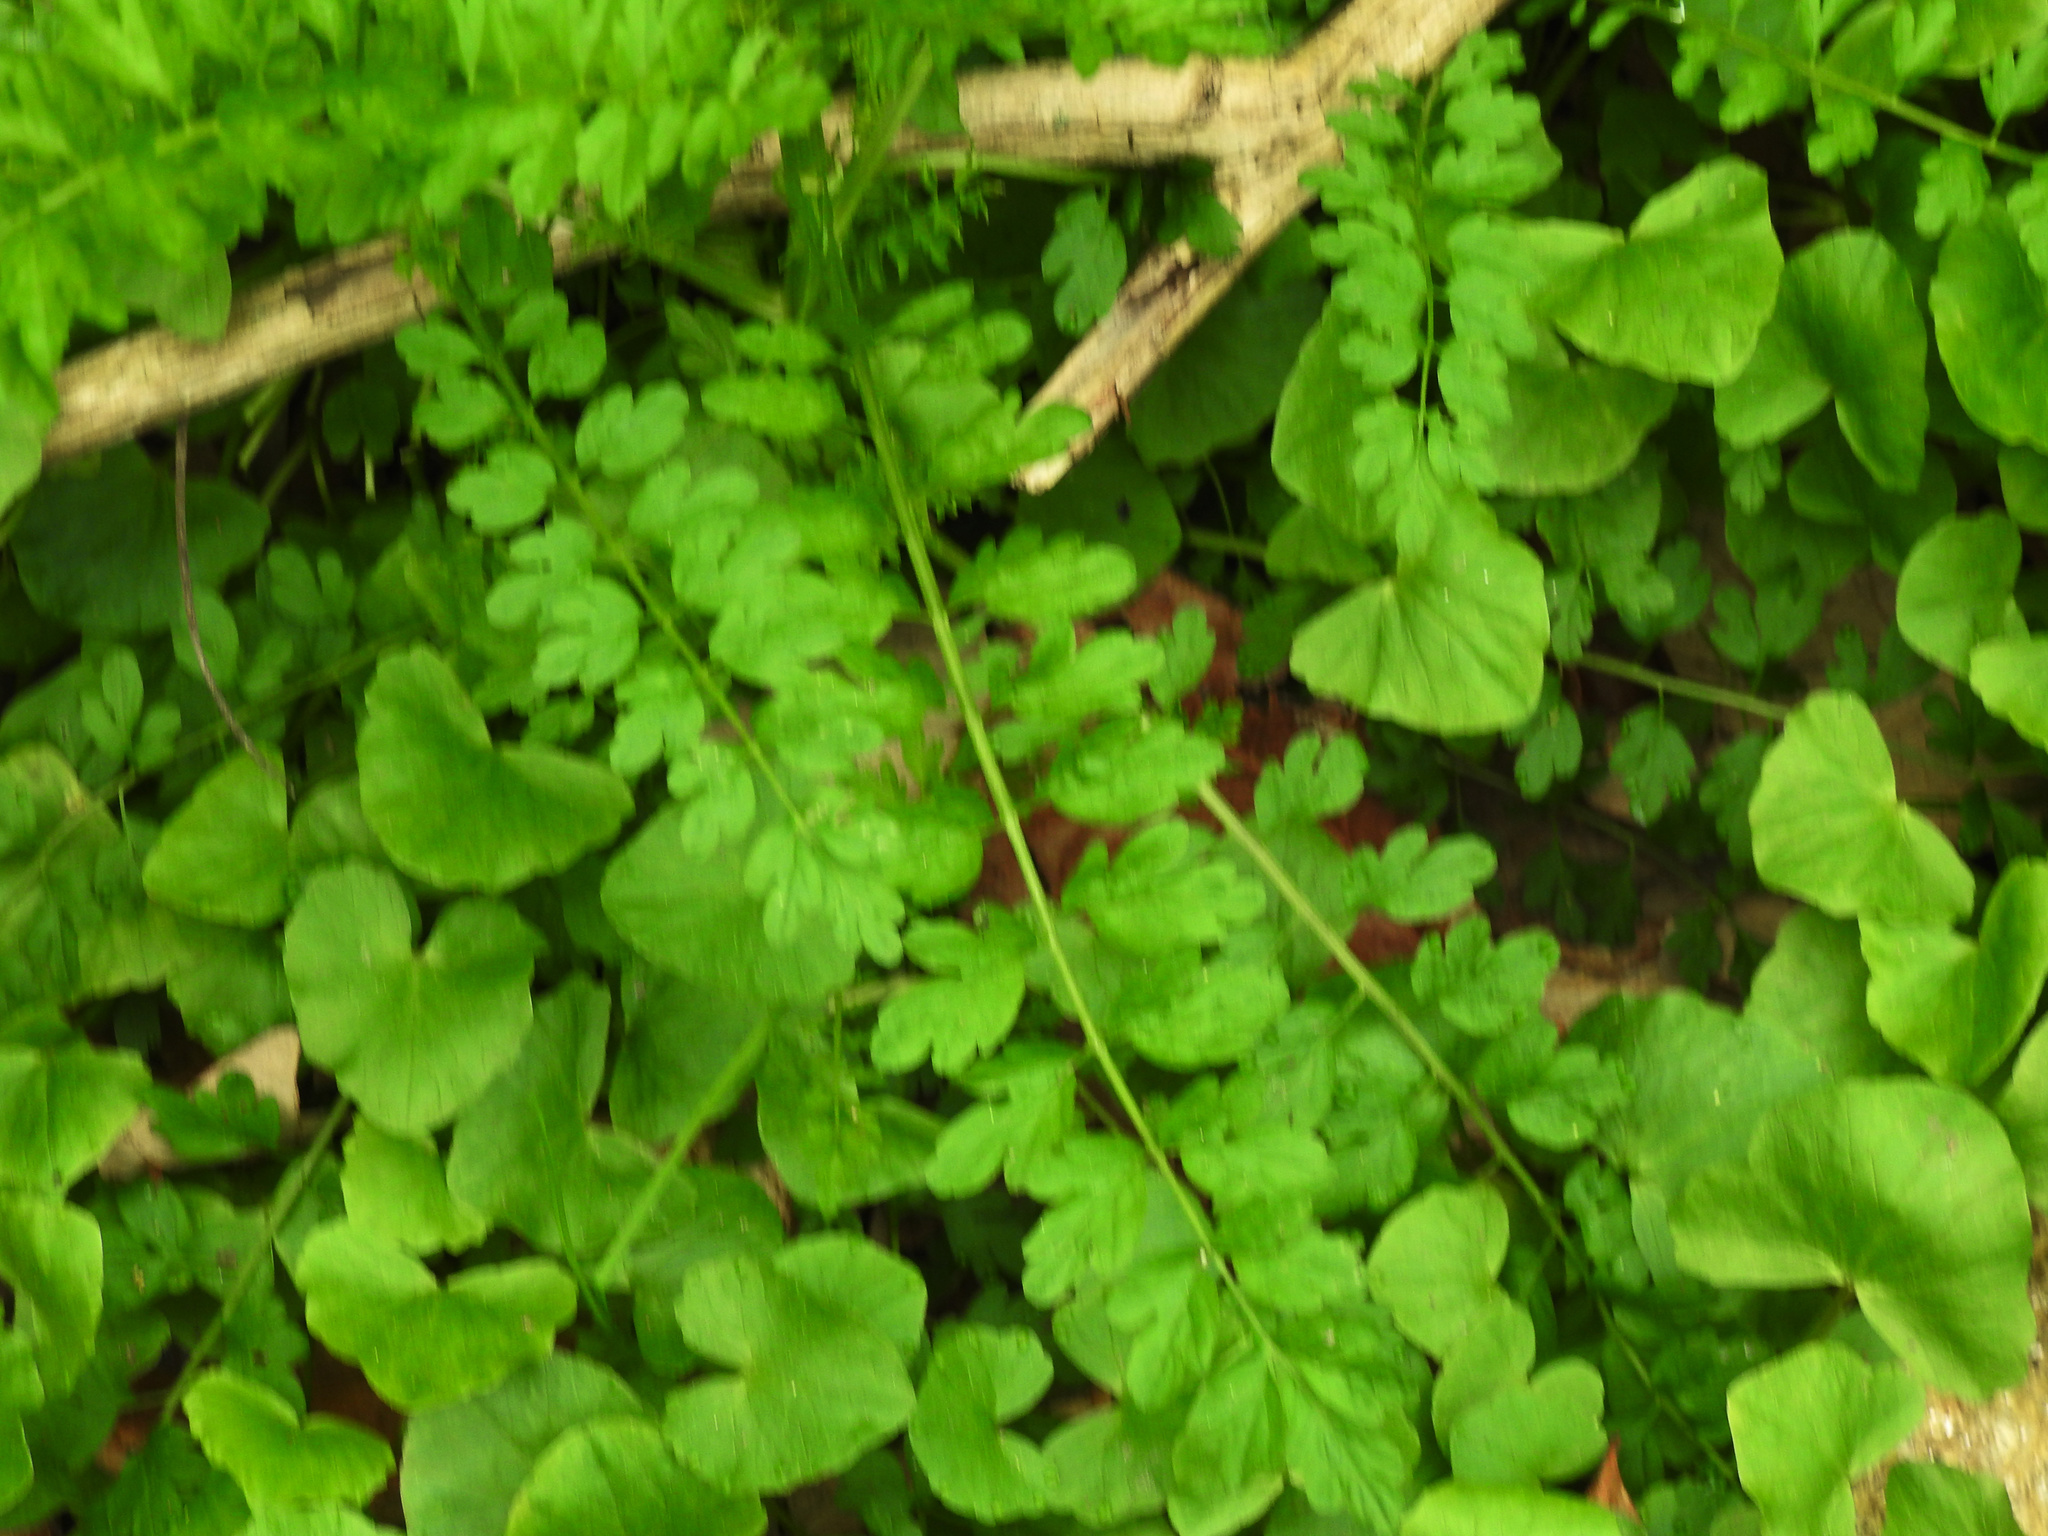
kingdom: Plantae
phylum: Tracheophyta
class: Magnoliopsida
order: Brassicales
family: Brassicaceae
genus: Cardamine
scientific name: Cardamine impatiens
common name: Narrow-leaved bitter-cress
